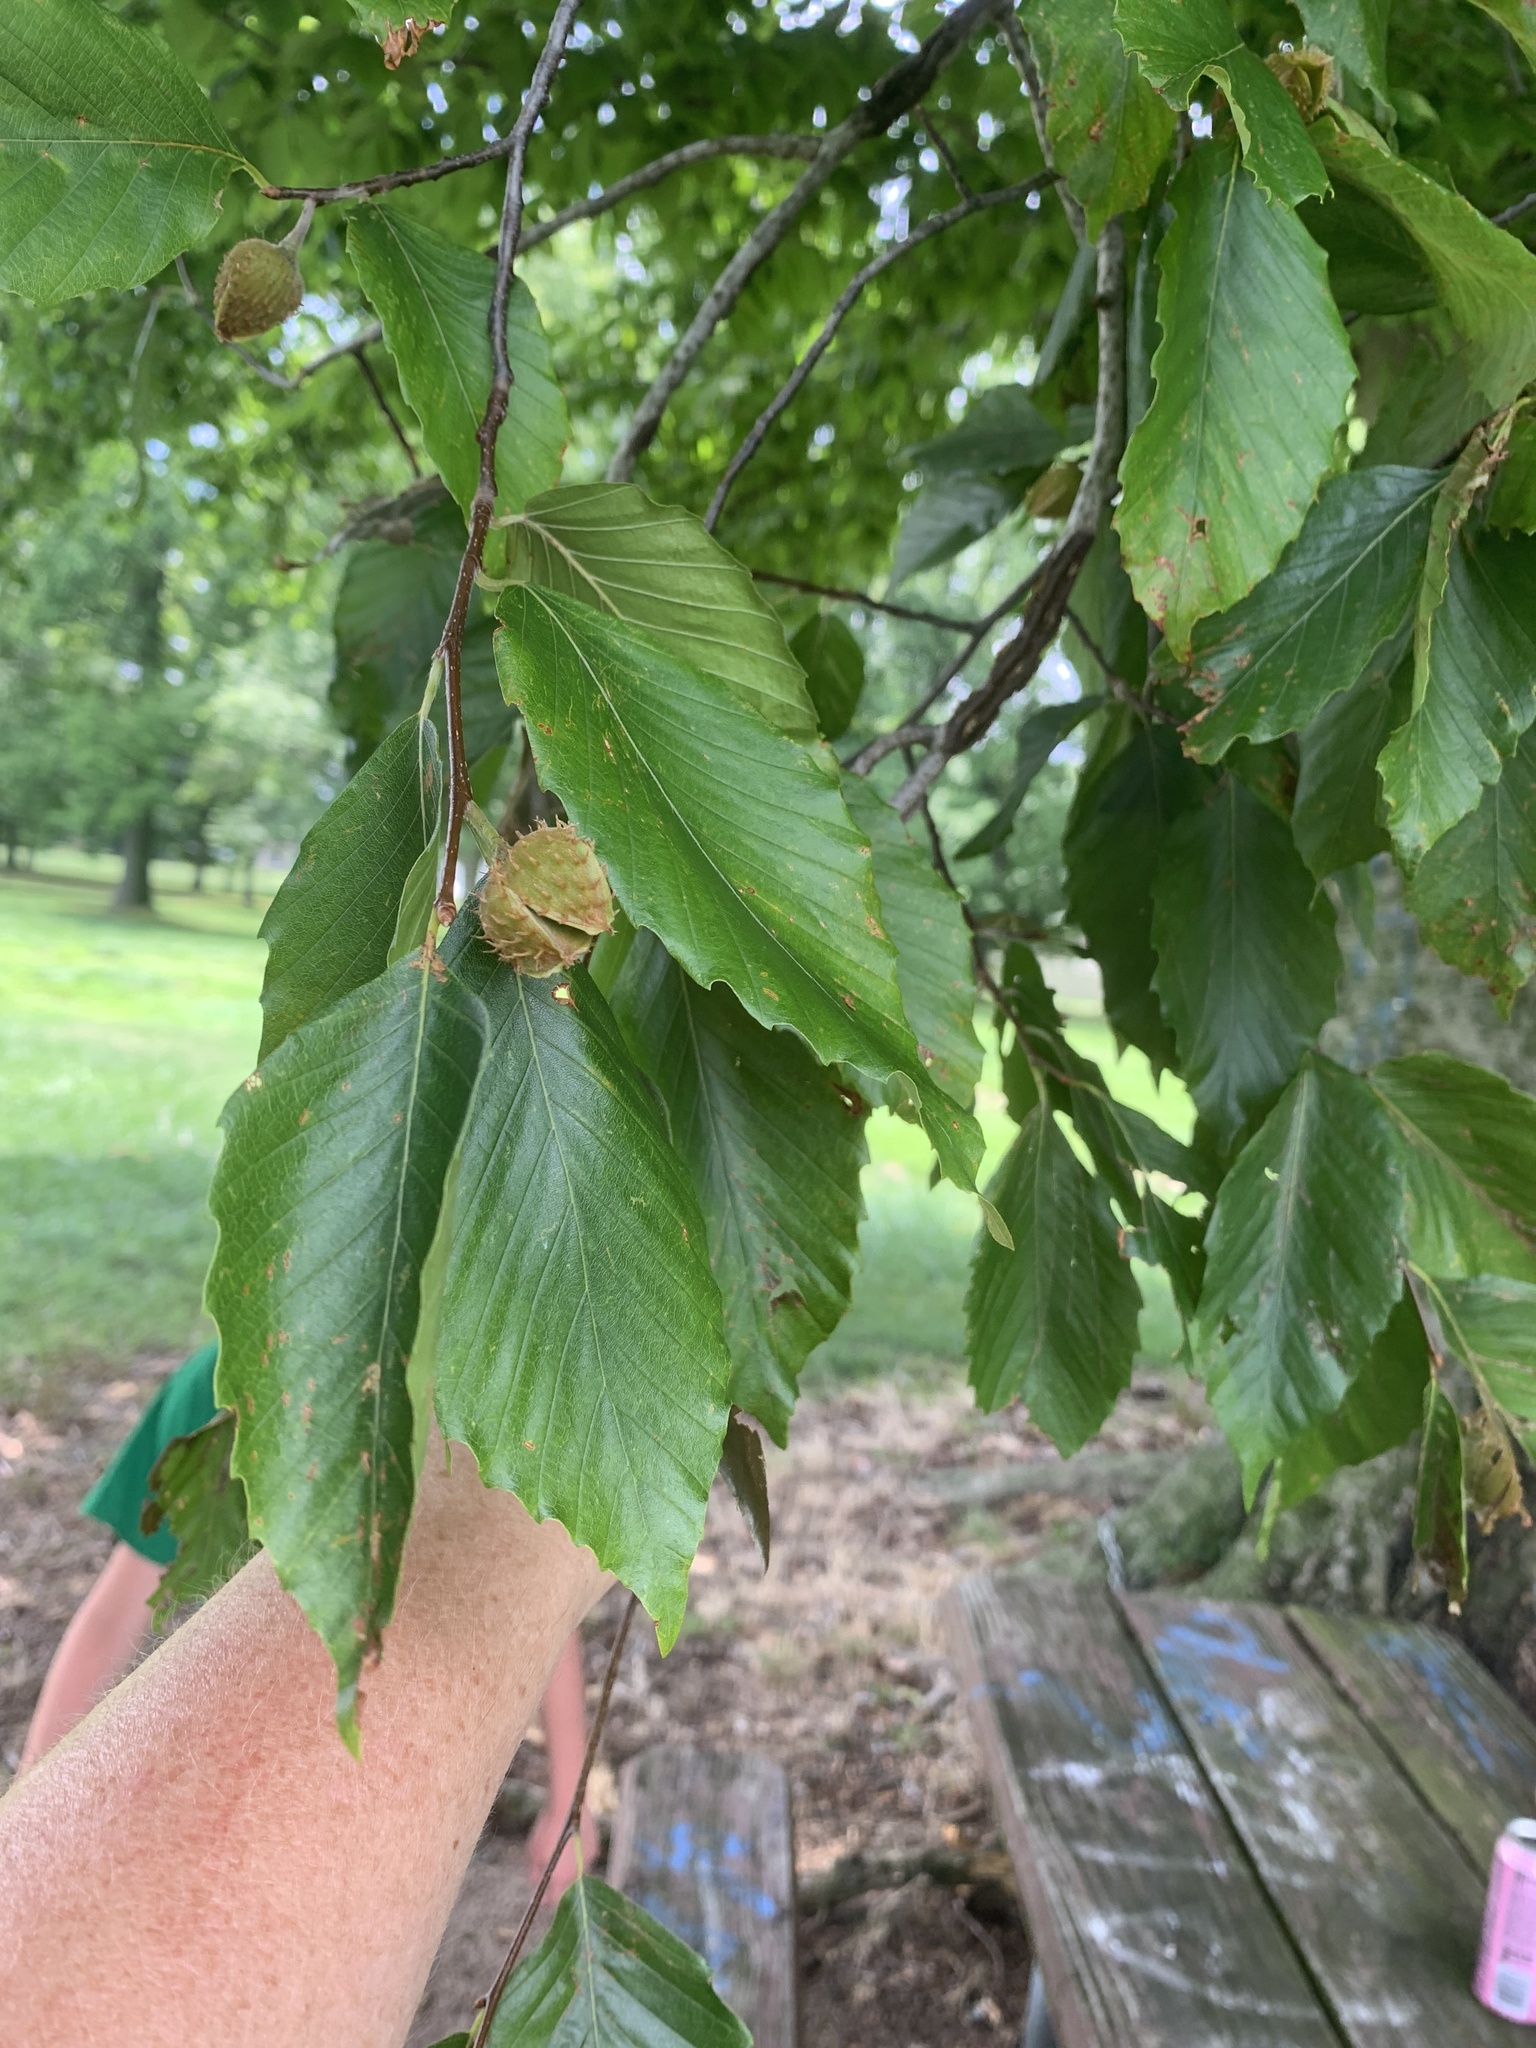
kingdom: Plantae
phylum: Tracheophyta
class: Magnoliopsida
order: Fagales
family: Fagaceae
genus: Fagus
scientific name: Fagus grandifolia
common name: American beech
